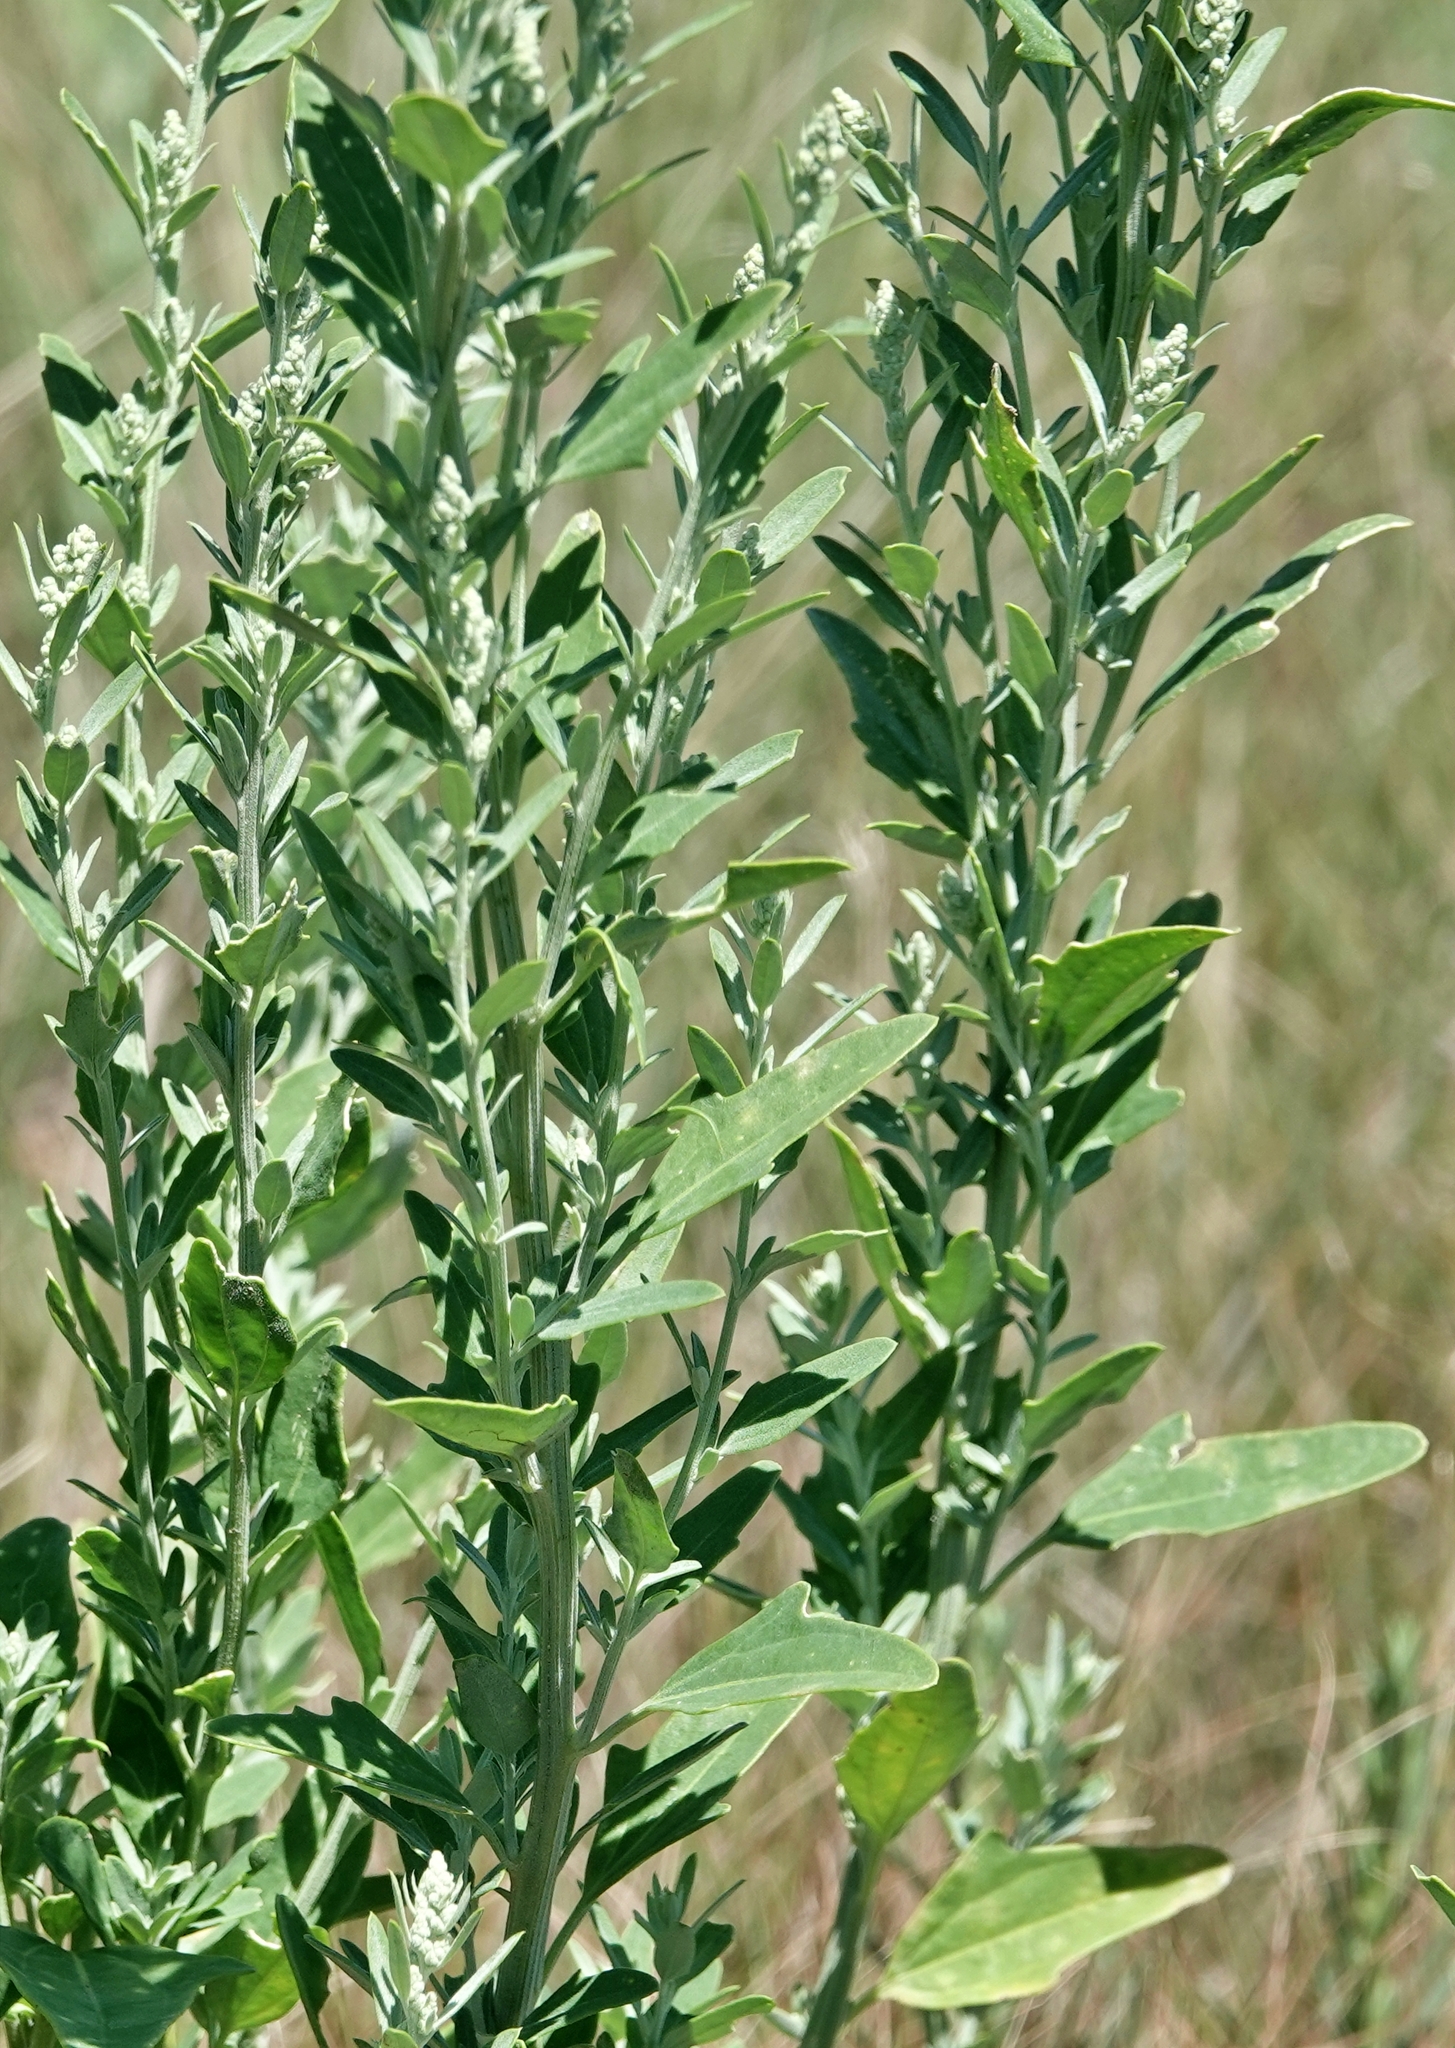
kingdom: Plantae
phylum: Tracheophyta
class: Magnoliopsida
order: Caryophyllales
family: Amaranthaceae
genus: Chenopodium
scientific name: Chenopodium album
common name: Fat-hen
